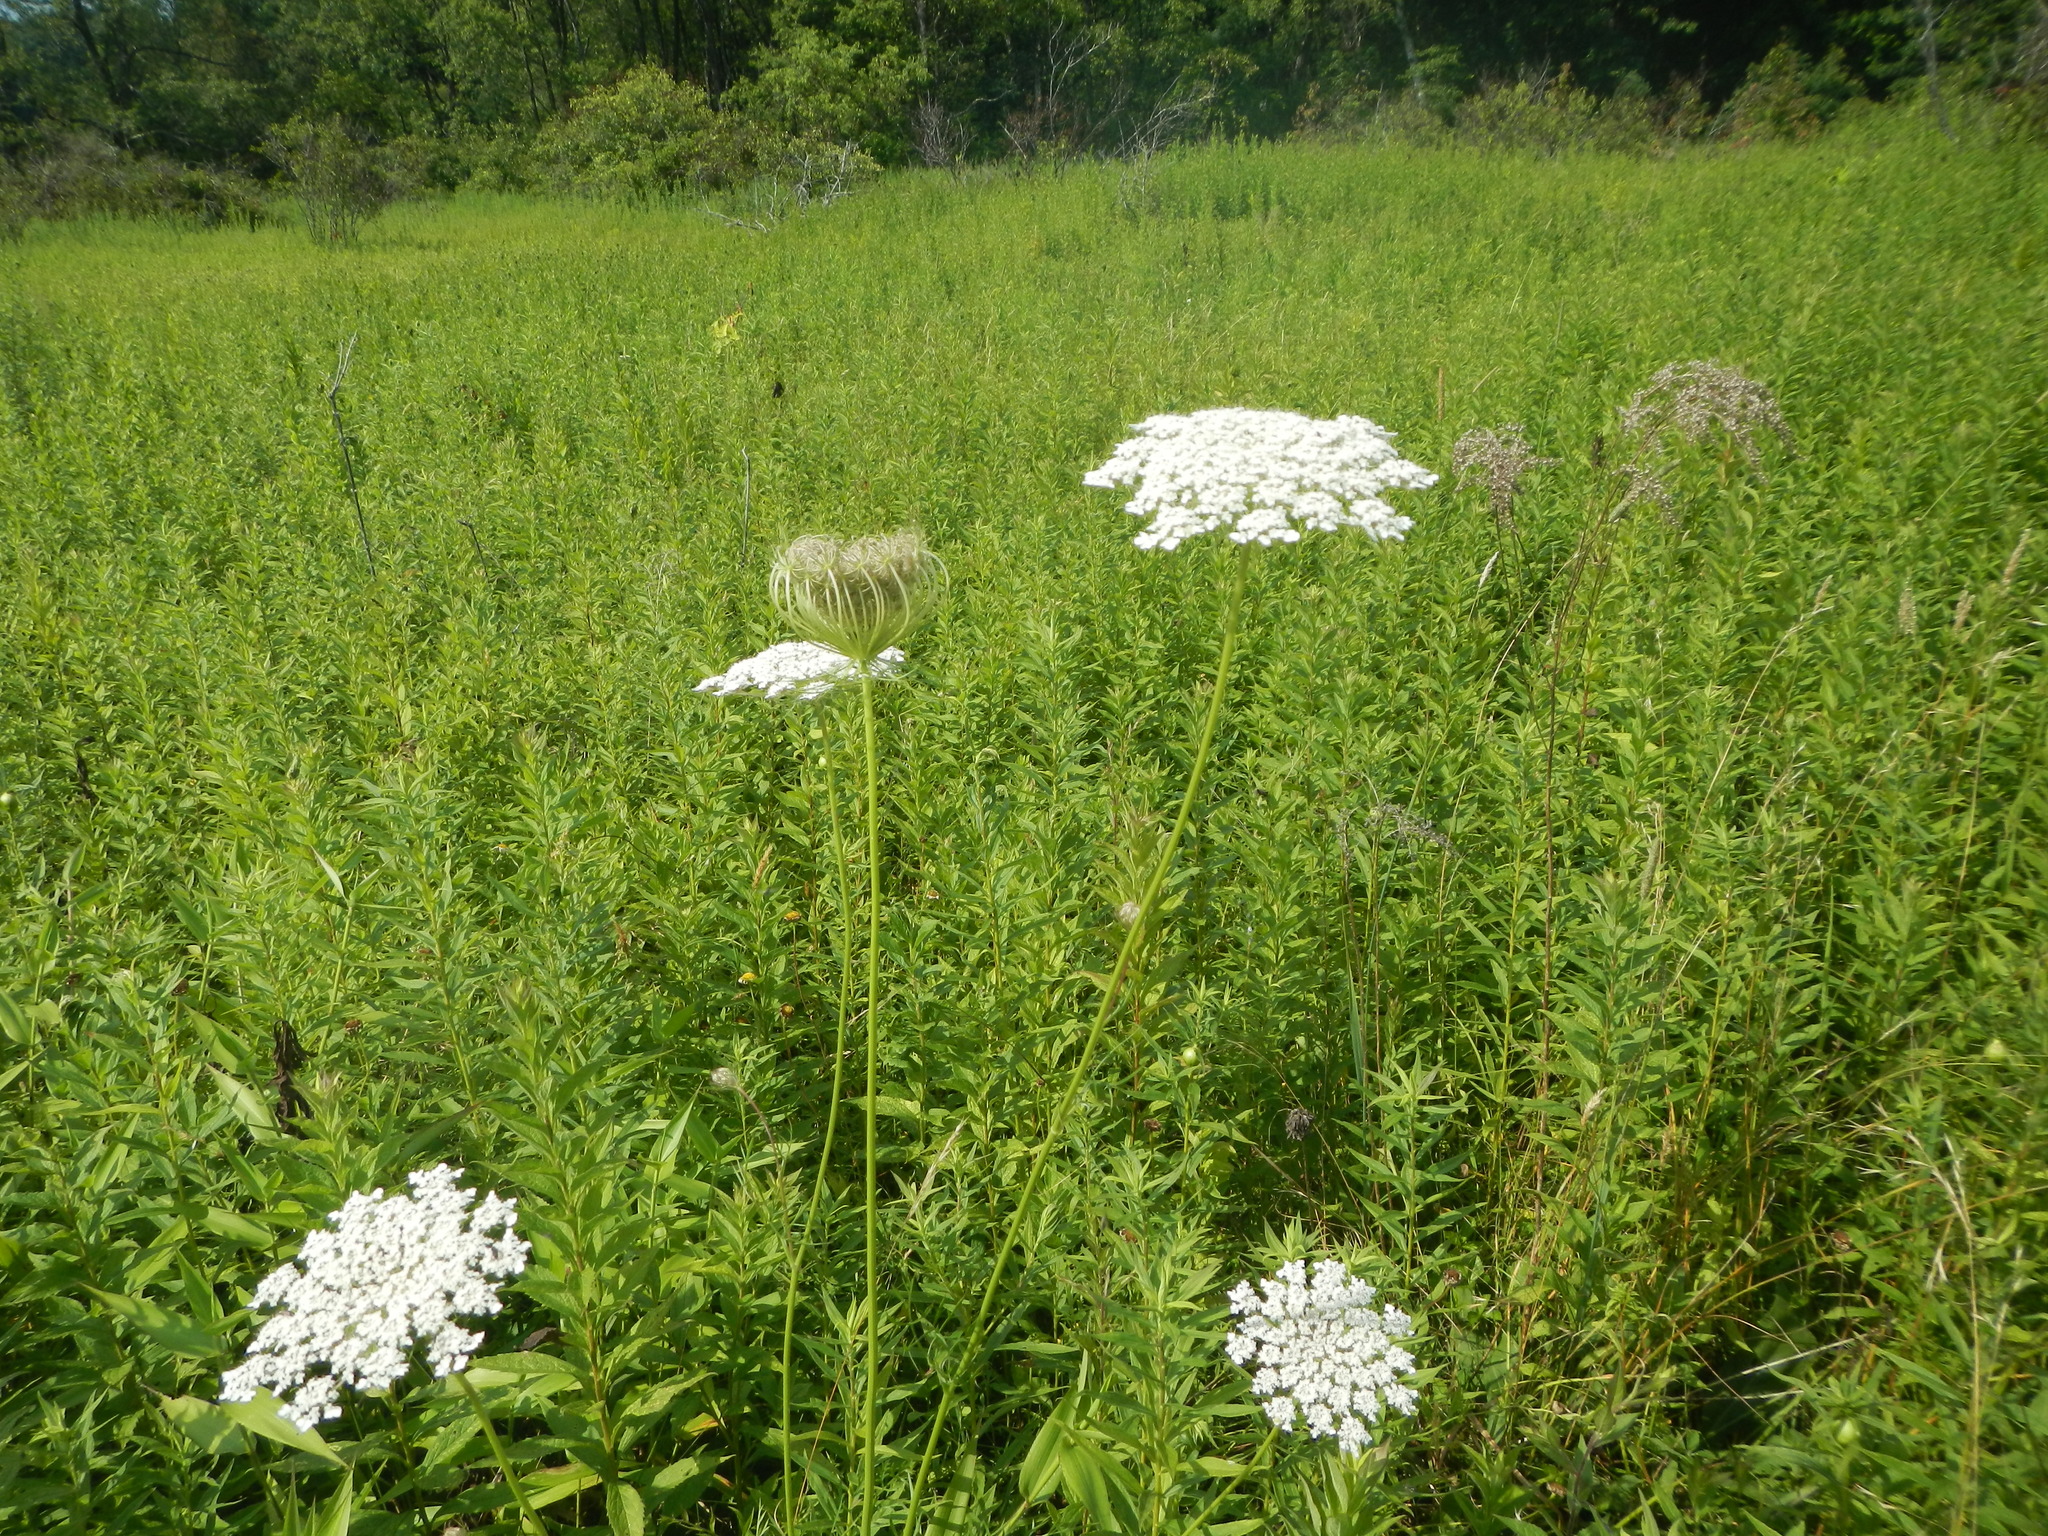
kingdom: Plantae
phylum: Tracheophyta
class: Magnoliopsida
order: Apiales
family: Apiaceae
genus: Daucus
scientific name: Daucus carota
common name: Wild carrot
